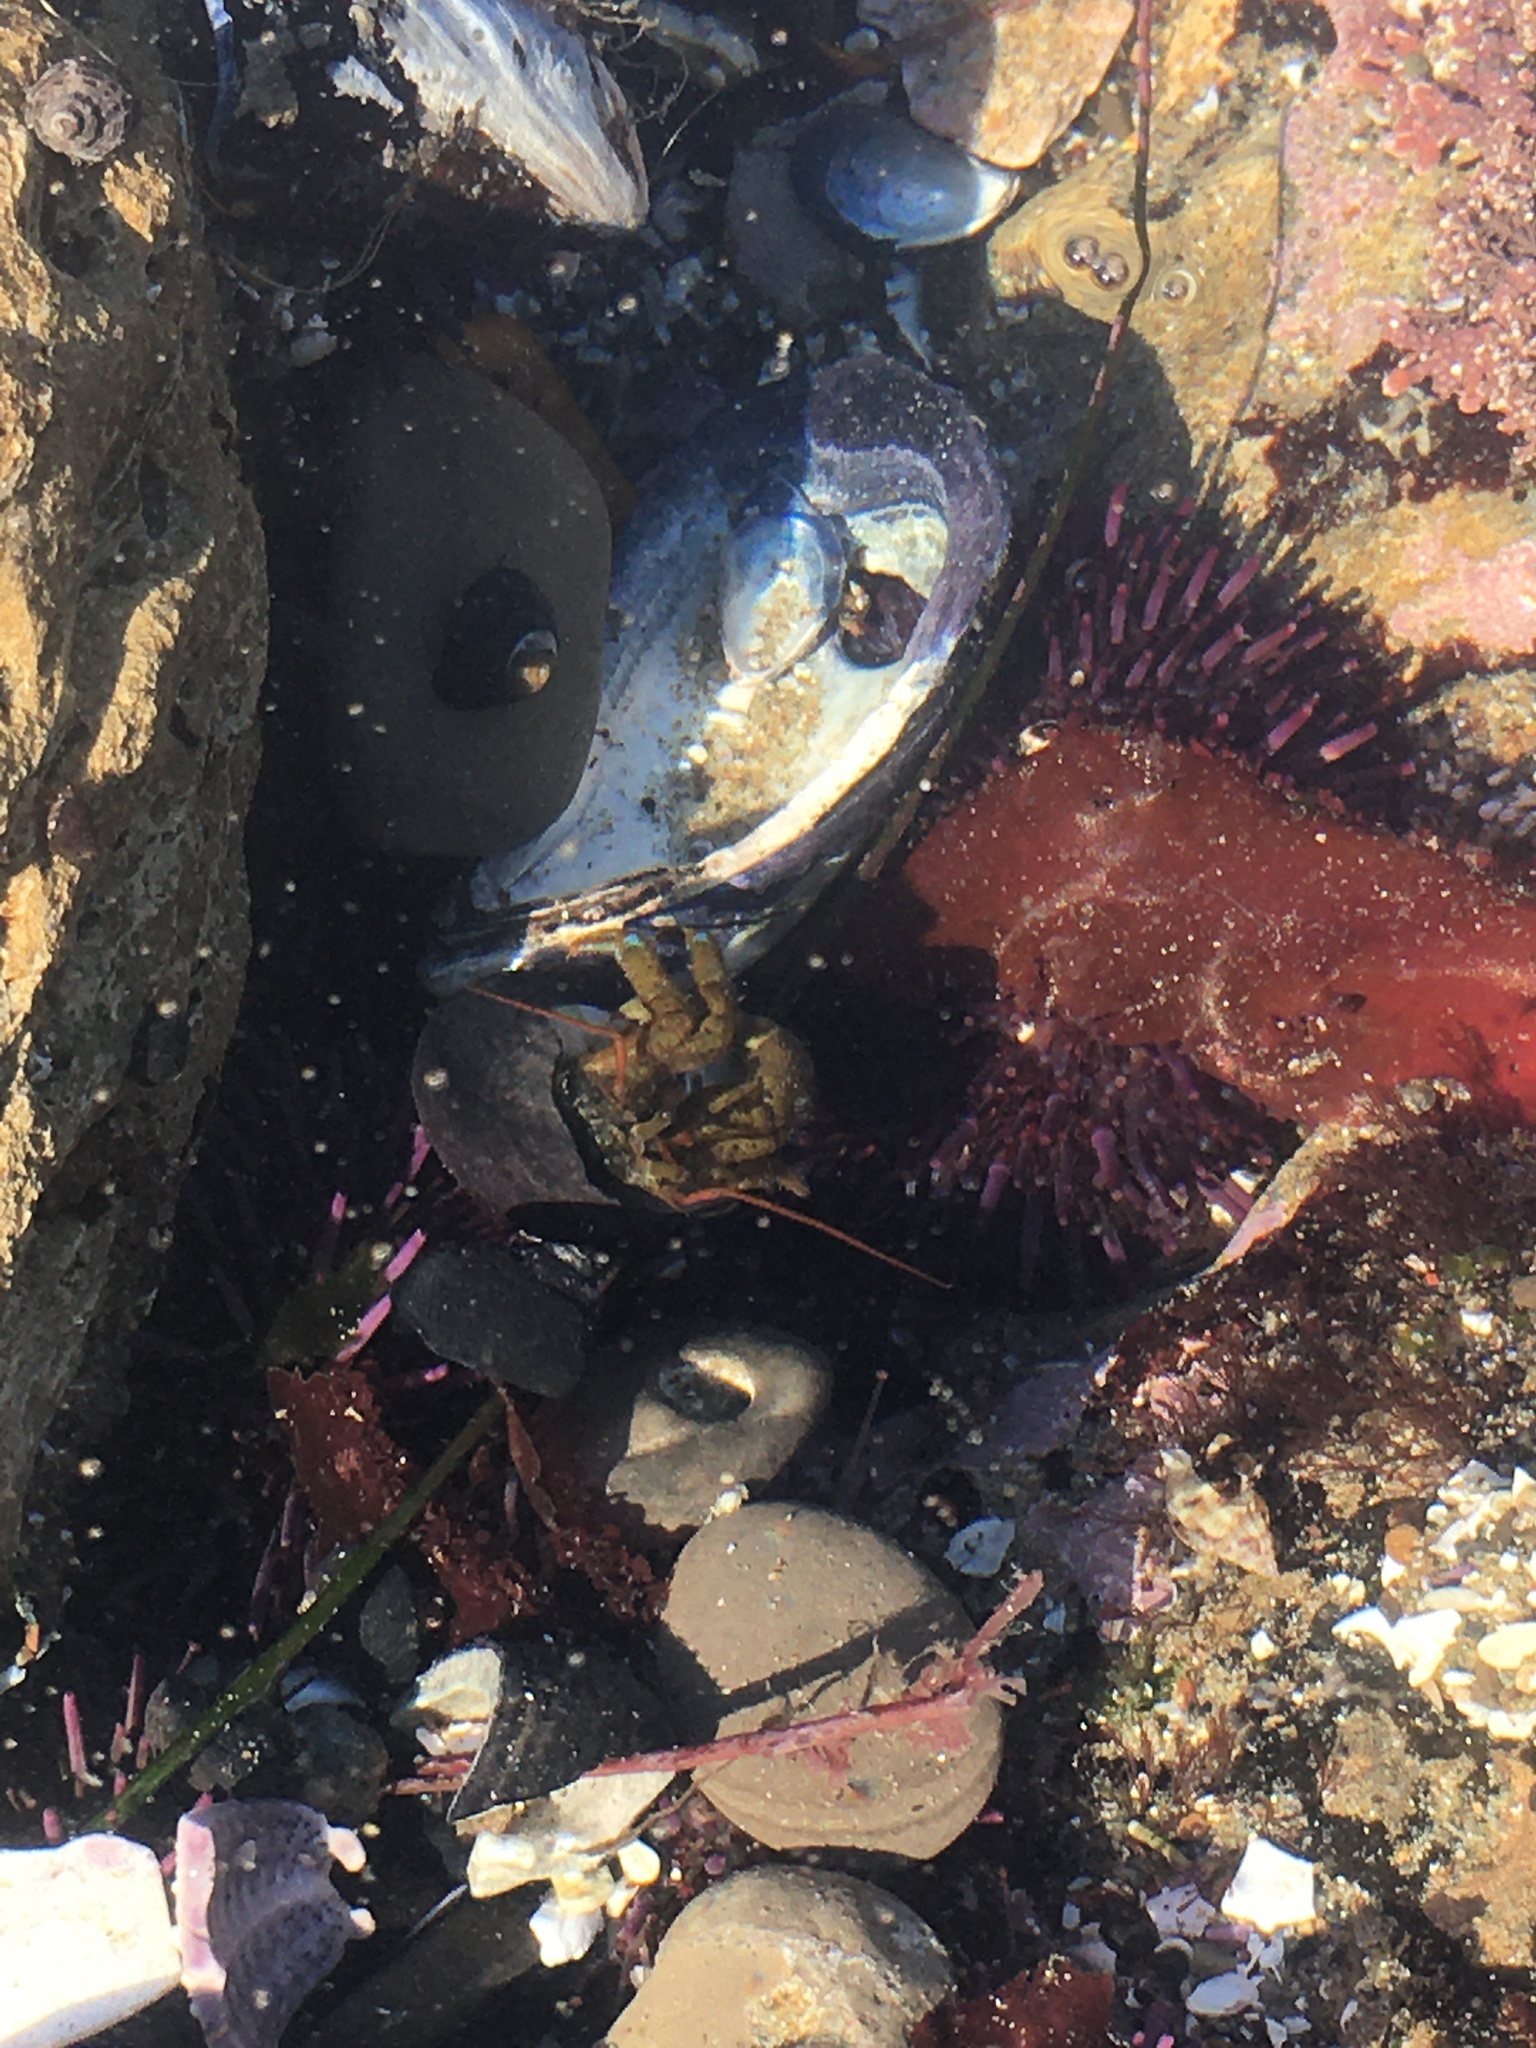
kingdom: Animalia
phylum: Arthropoda
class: Malacostraca
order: Decapoda
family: Paguridae
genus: Pagurus
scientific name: Pagurus samuelis
